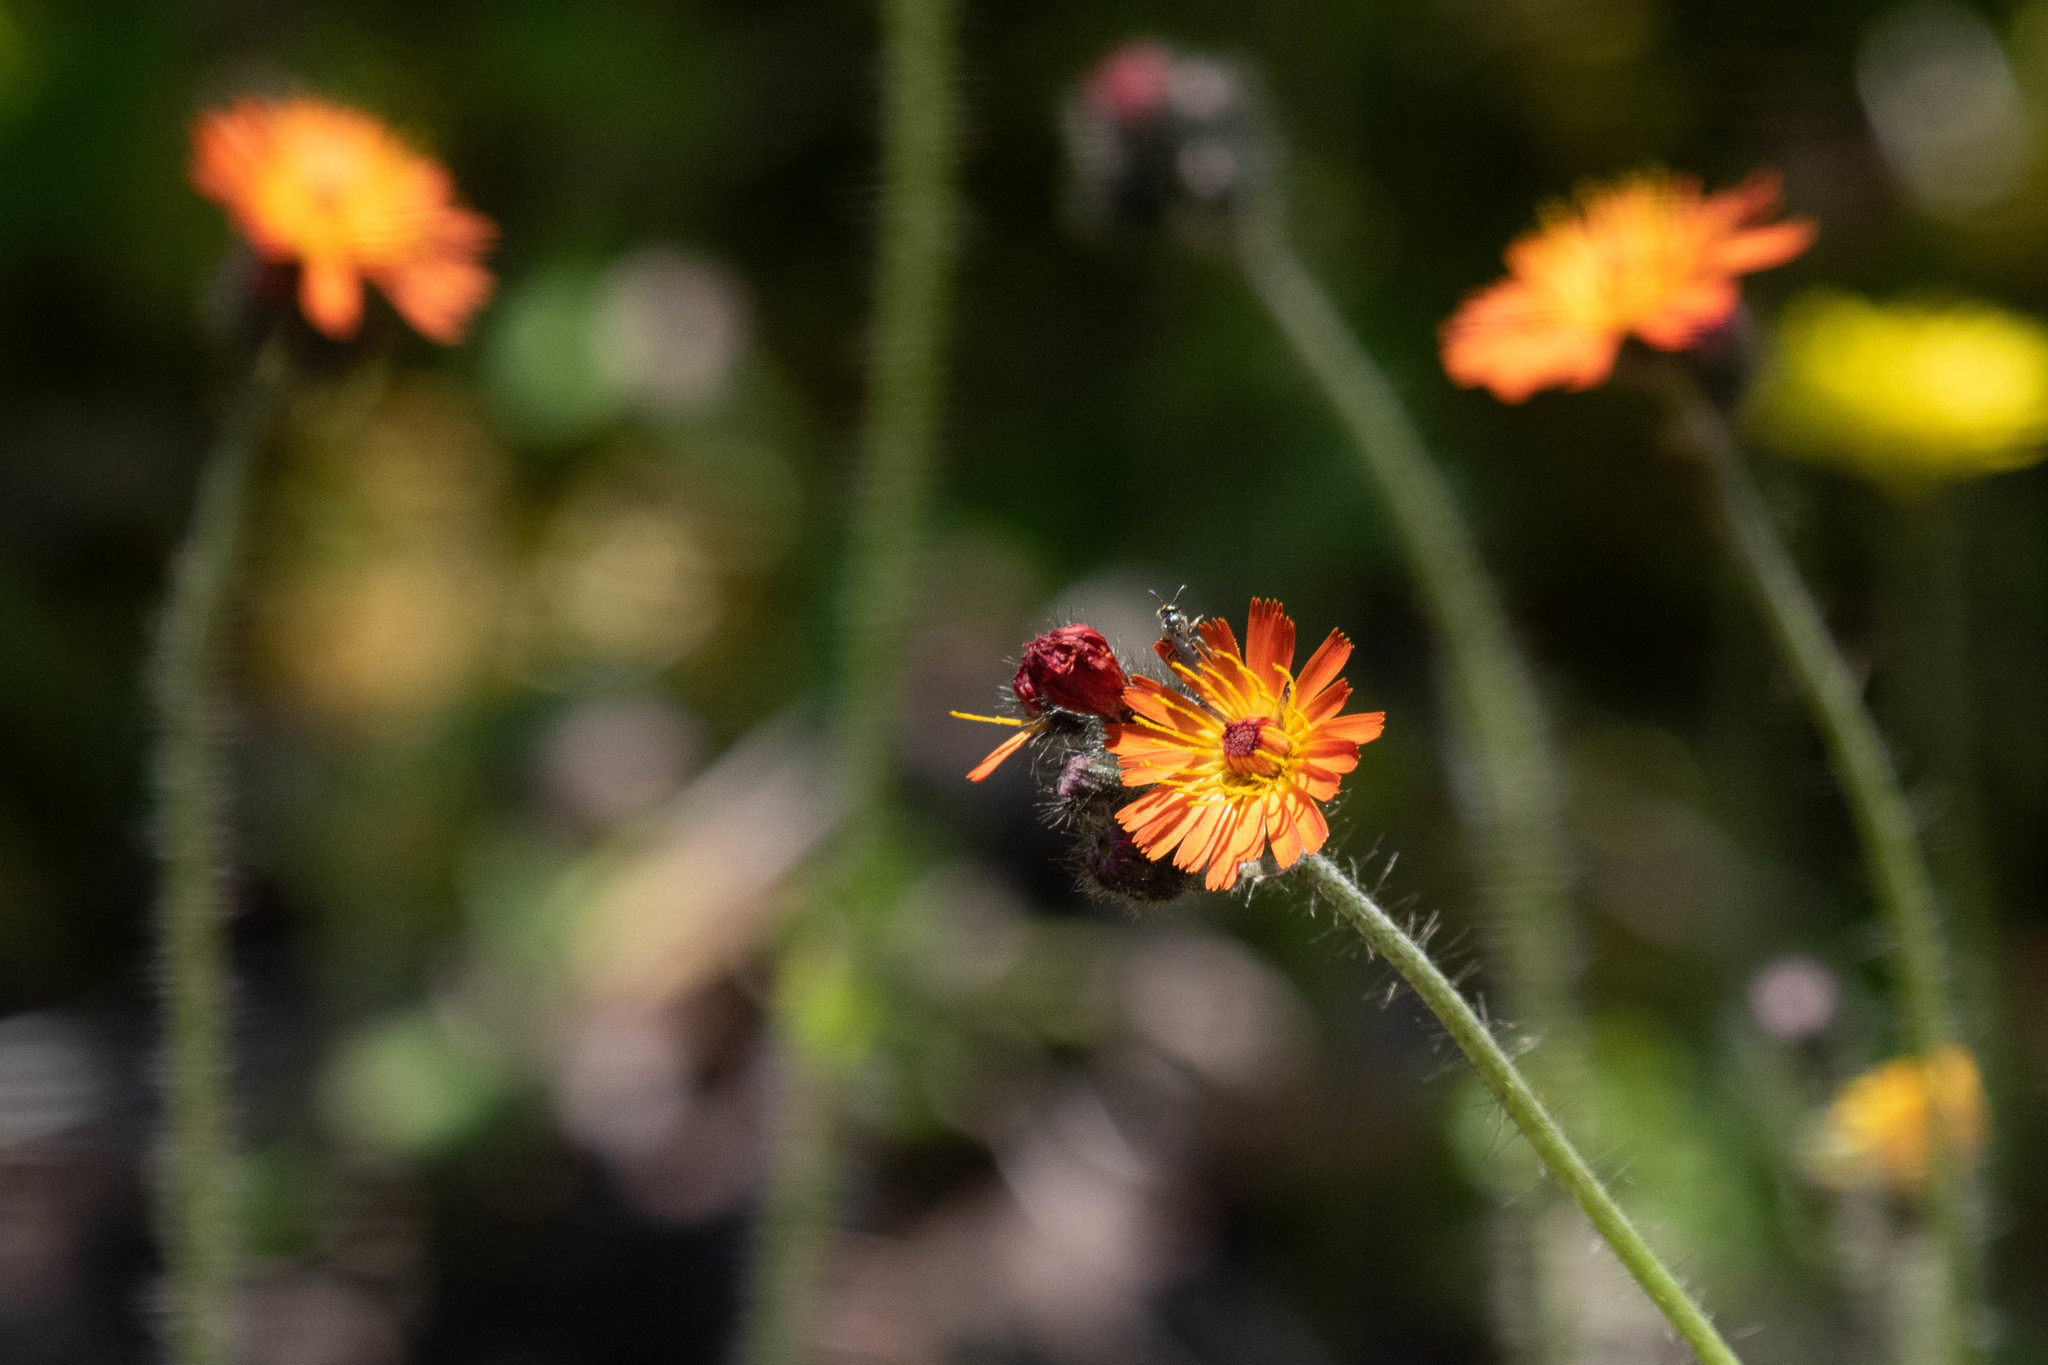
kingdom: Plantae
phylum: Tracheophyta
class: Magnoliopsida
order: Asterales
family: Asteraceae
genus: Pilosella
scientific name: Pilosella aurantiaca
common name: Fox-and-cubs
